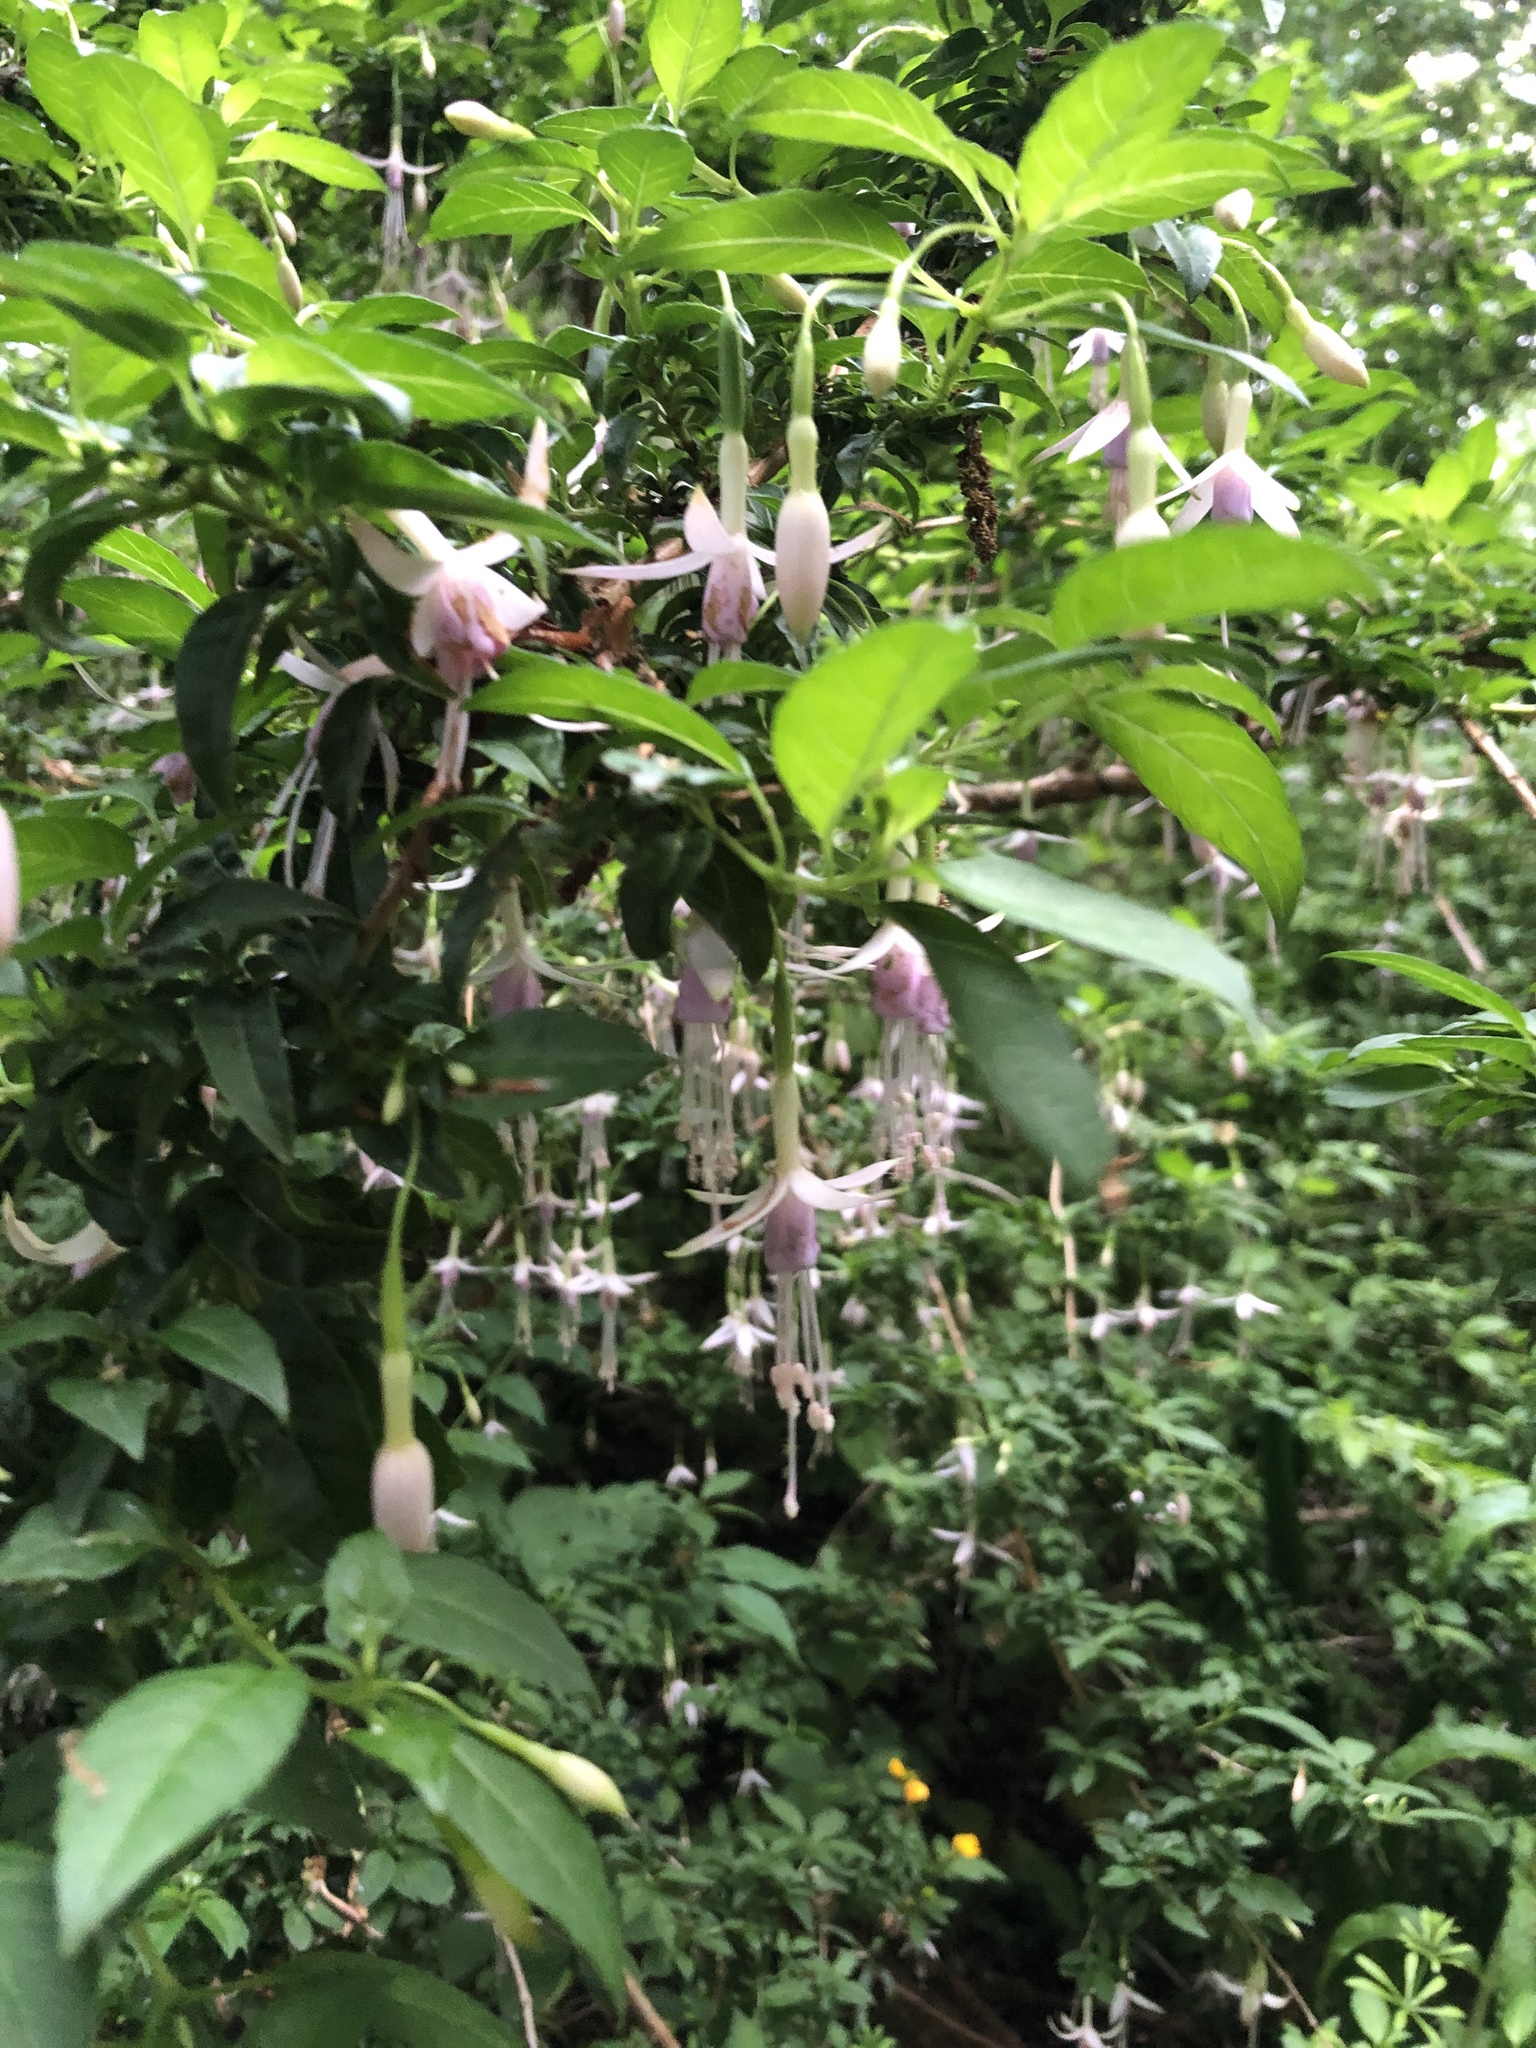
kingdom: Plantae
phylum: Tracheophyta
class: Magnoliopsida
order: Myrtales
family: Onagraceae
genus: Fuchsia
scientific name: Fuchsia magellanica
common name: Hardy fuchsia
